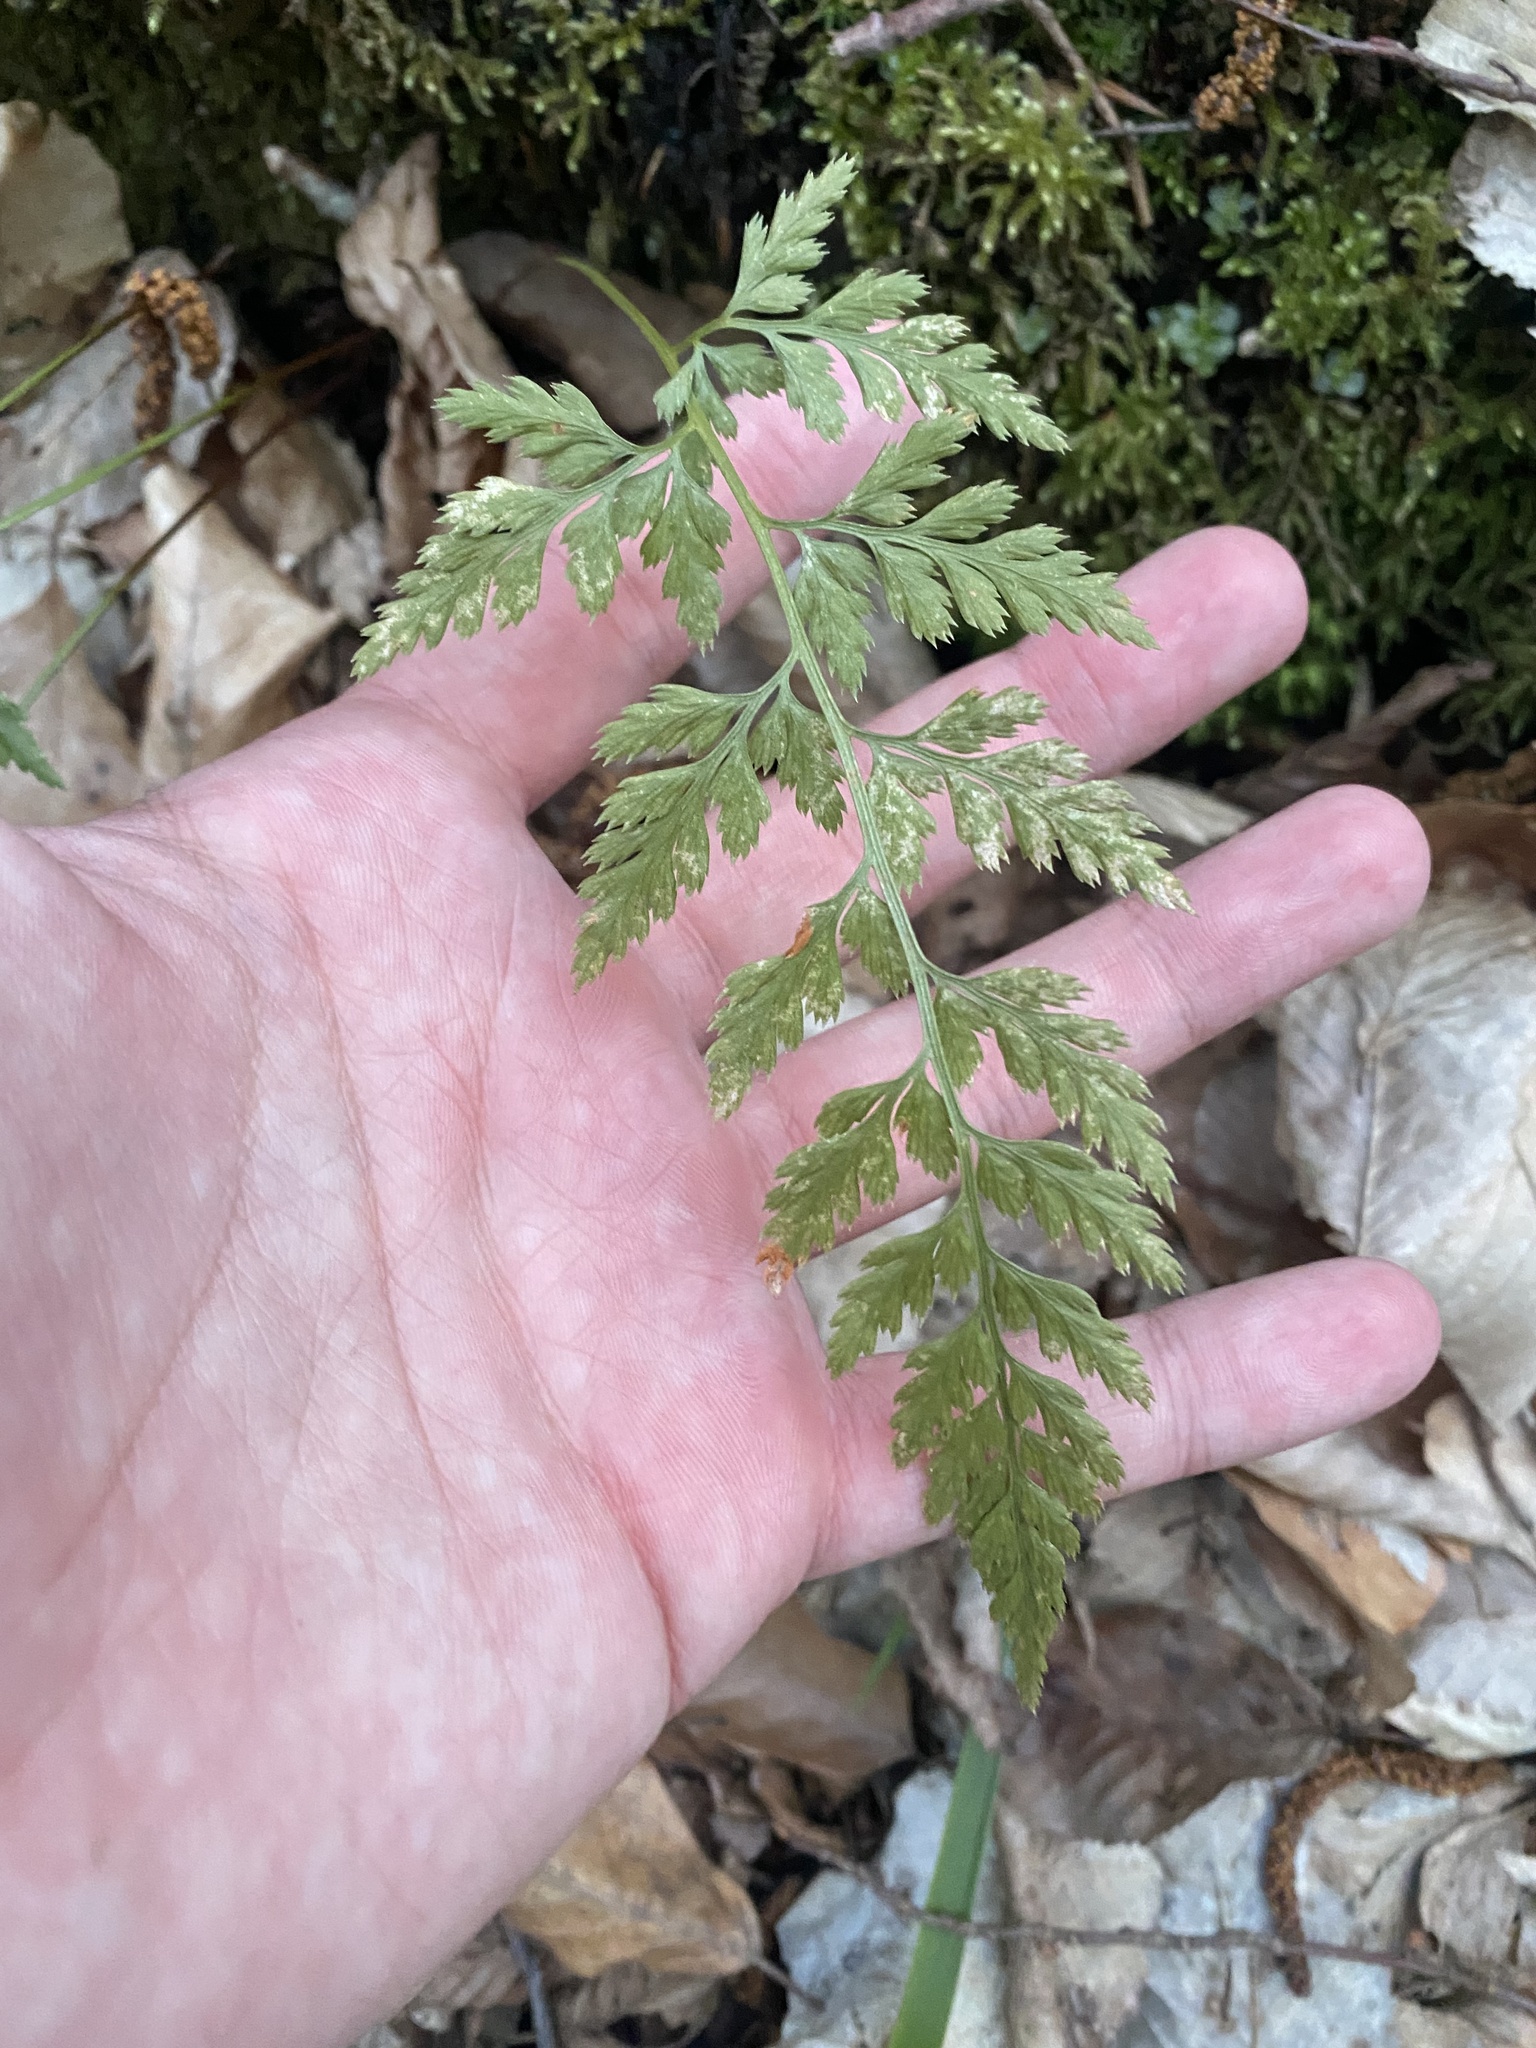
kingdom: Plantae
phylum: Tracheophyta
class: Polypodiopsida
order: Polypodiales
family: Aspleniaceae
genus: Asplenium
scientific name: Asplenium adiantum-nigrum
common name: Black spleenwort
